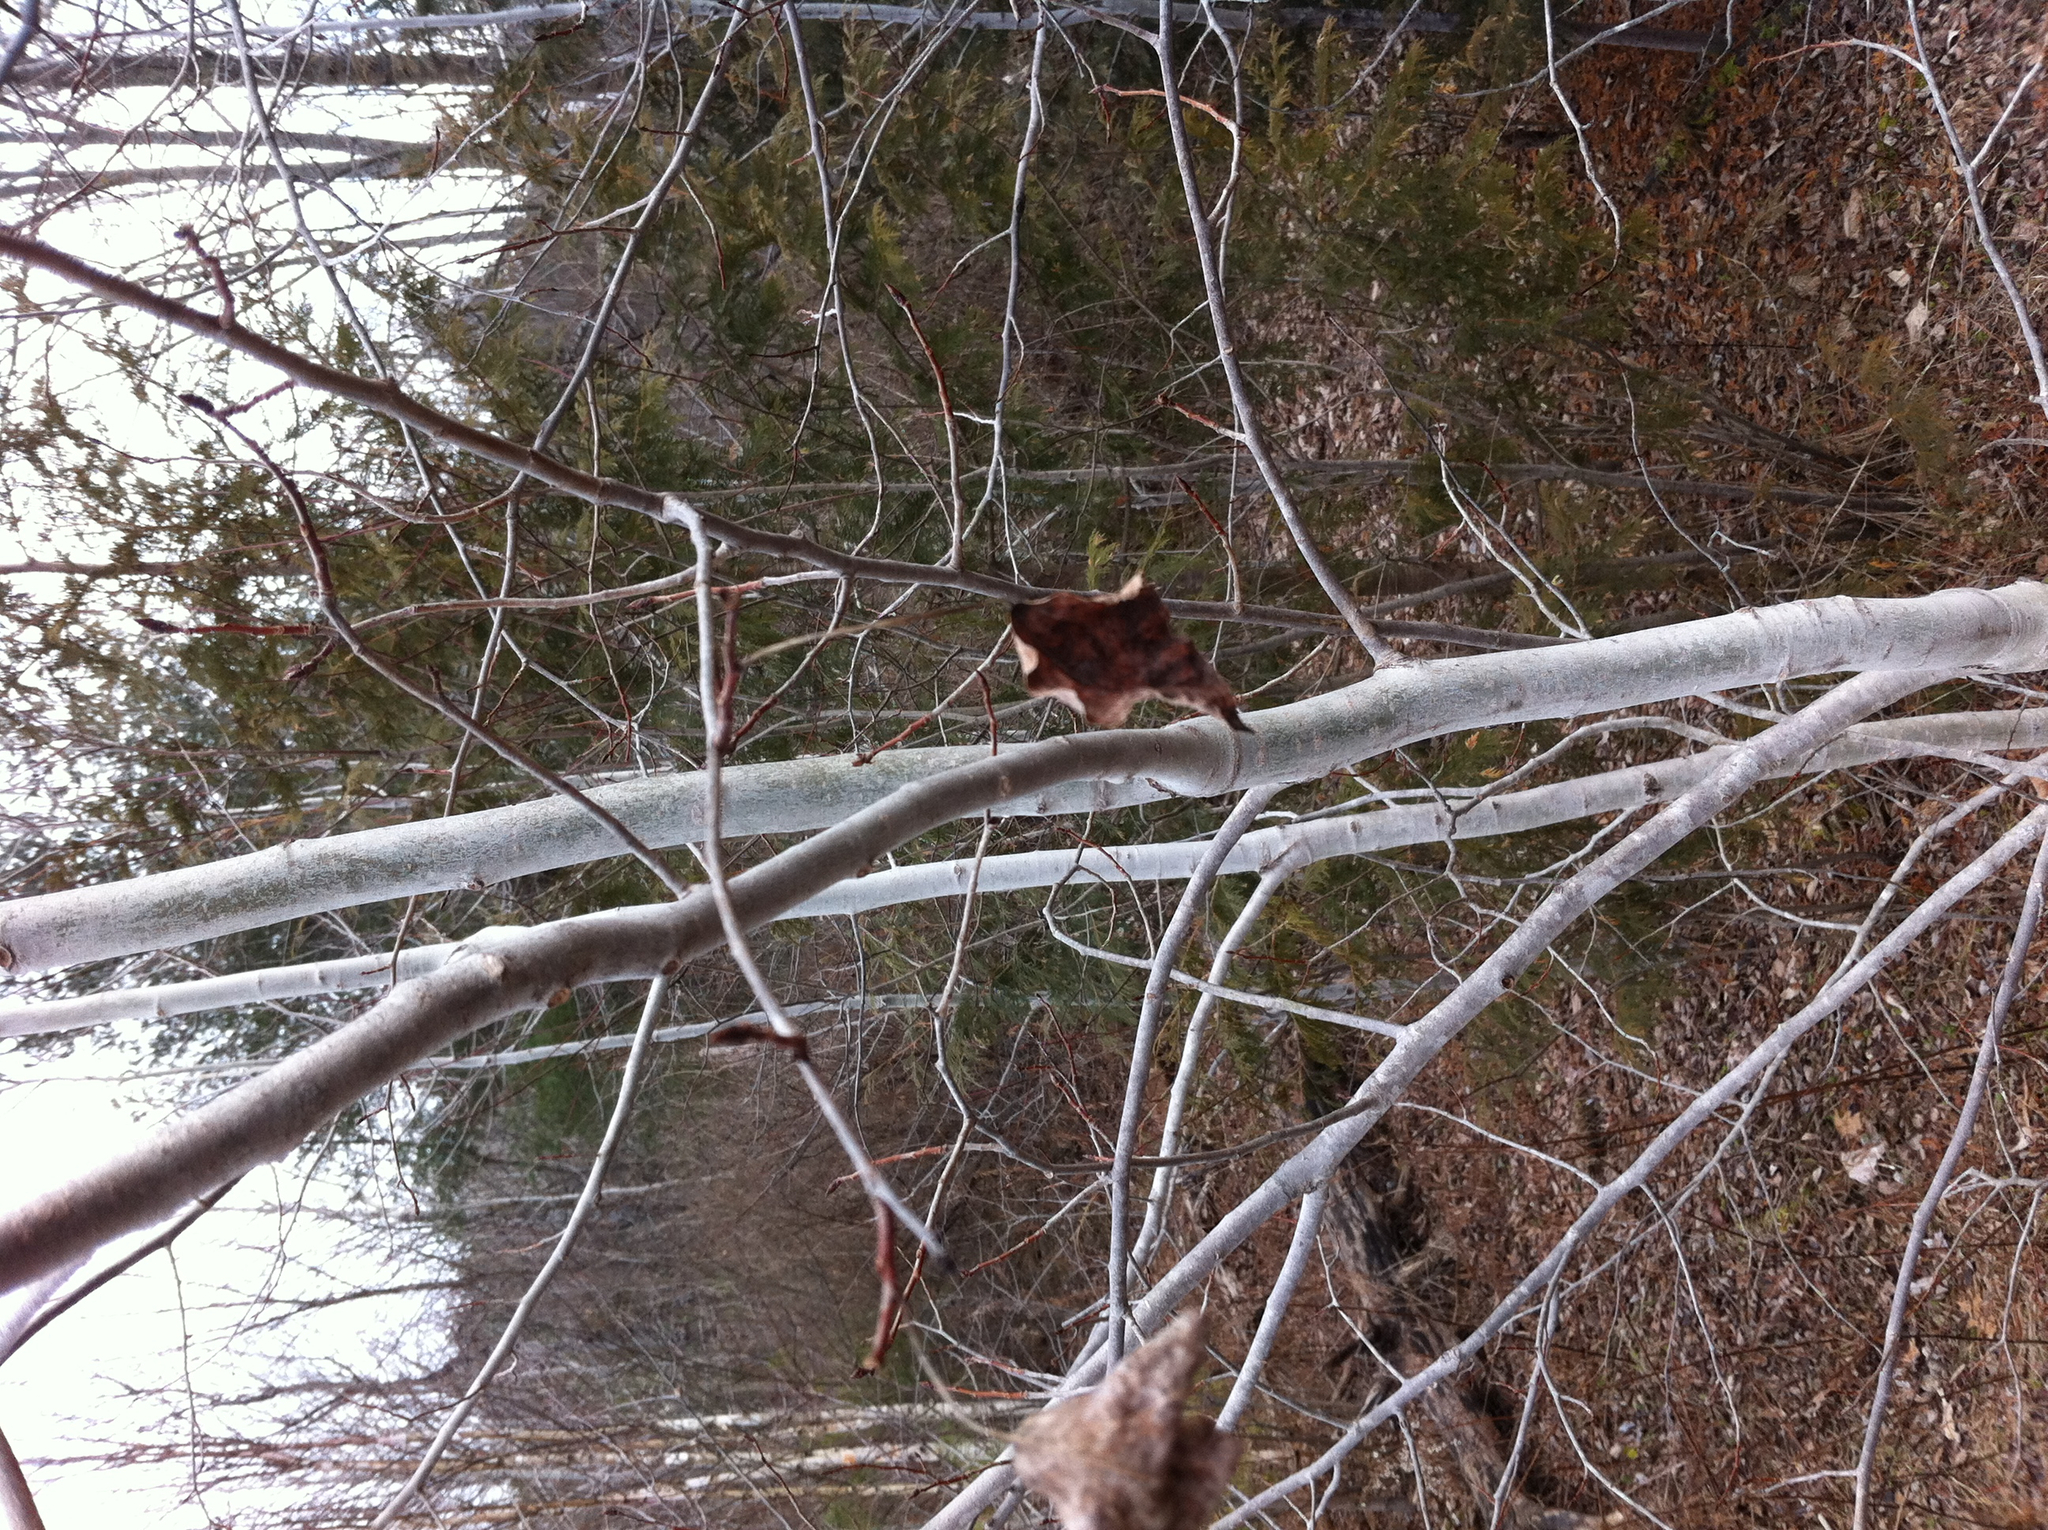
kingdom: Plantae
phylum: Tracheophyta
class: Magnoliopsida
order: Malpighiales
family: Salicaceae
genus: Populus
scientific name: Populus tremuloides
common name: Quaking aspen
